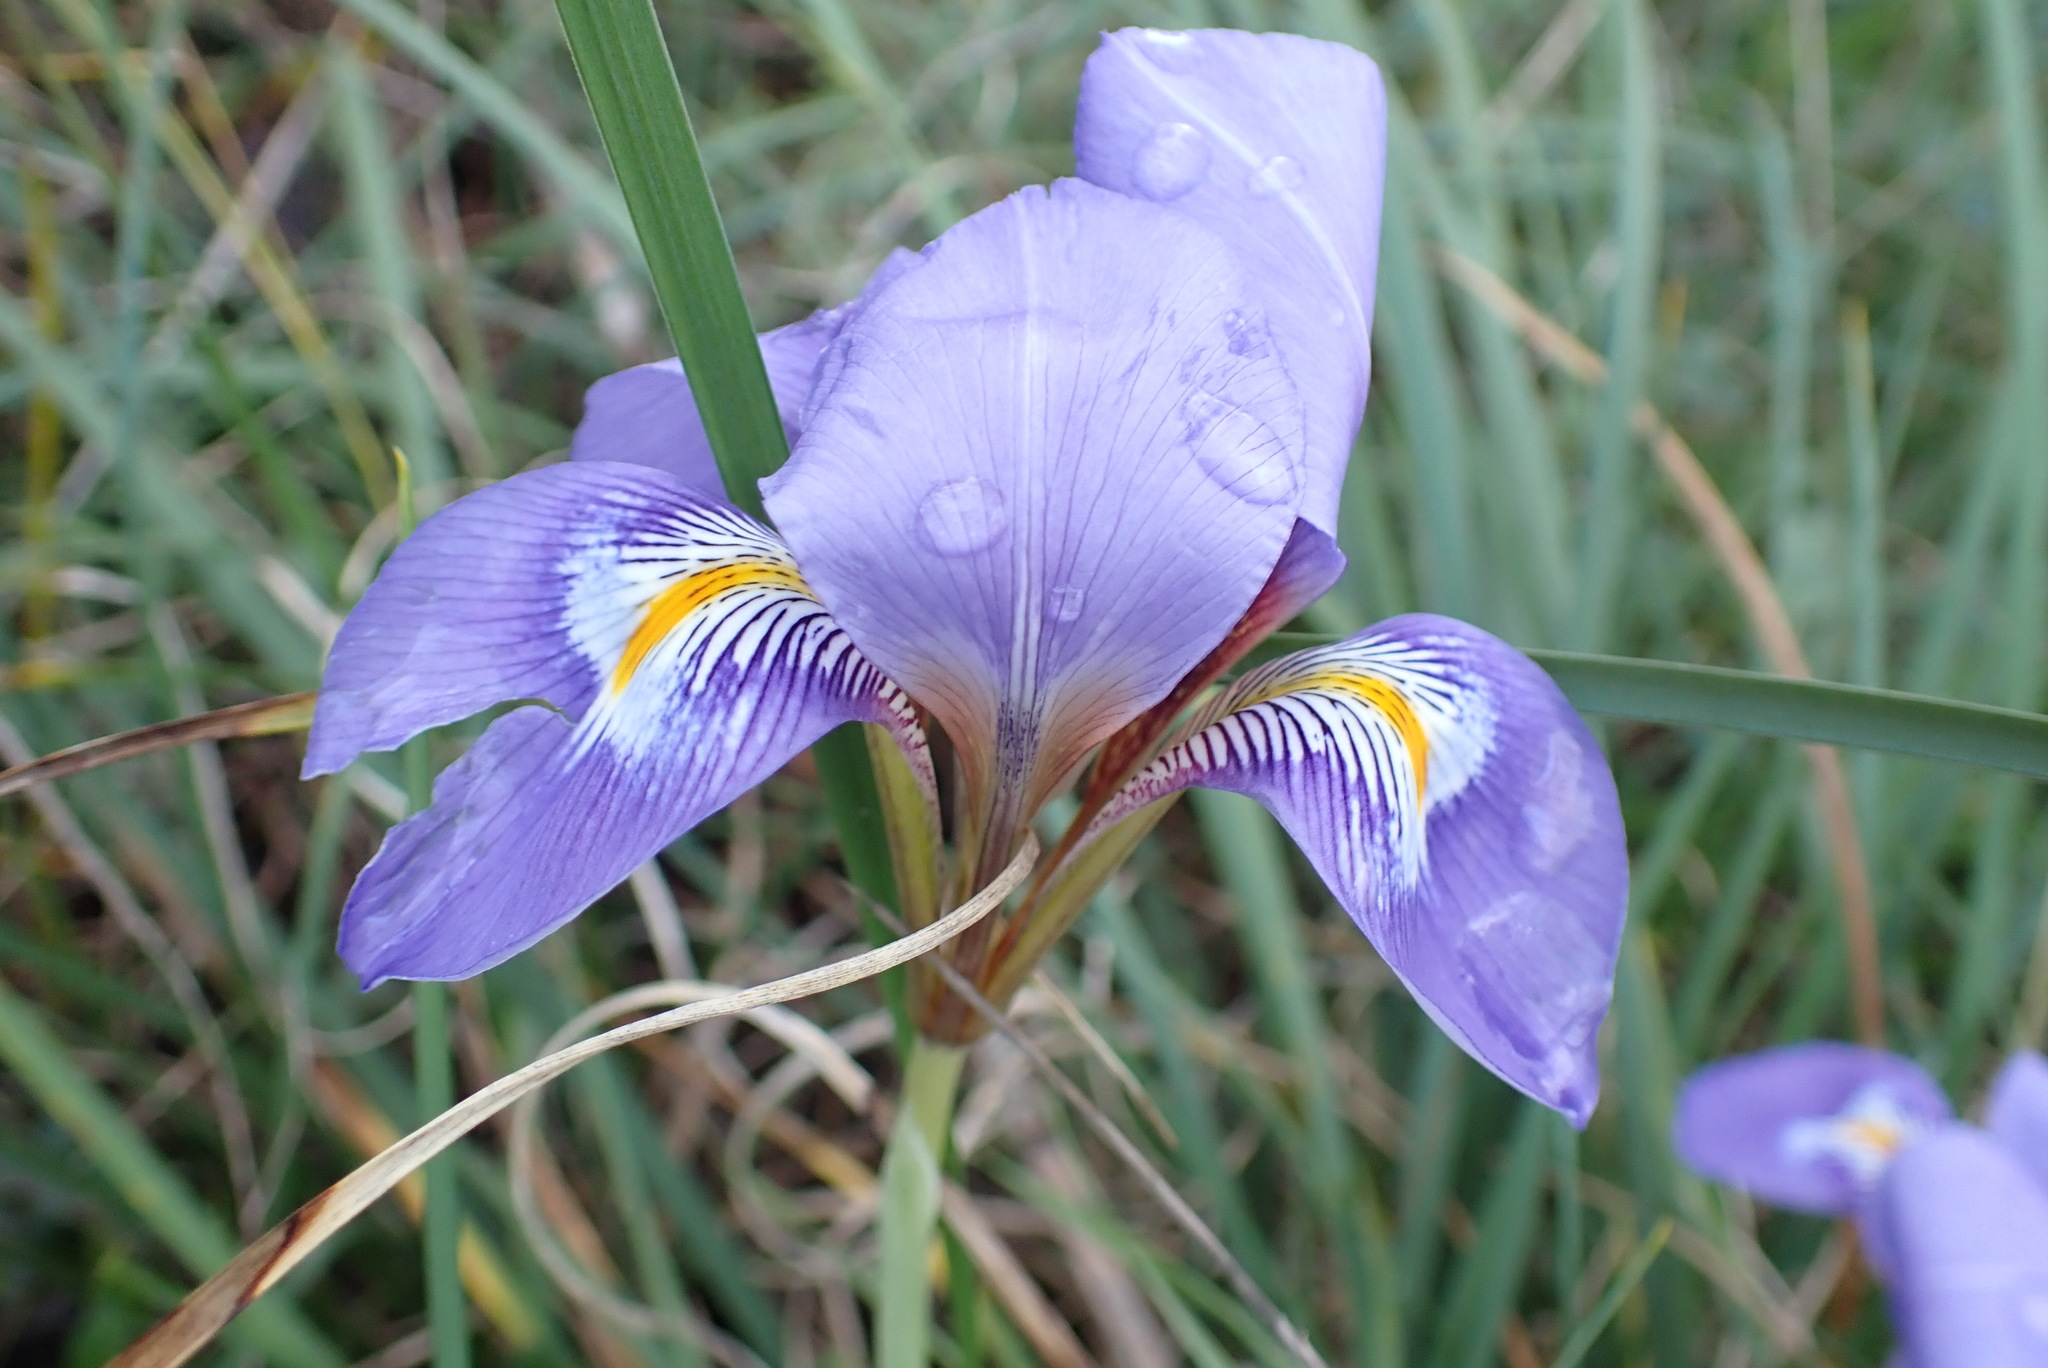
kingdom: Plantae
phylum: Tracheophyta
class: Liliopsida
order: Asparagales
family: Iridaceae
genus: Iris
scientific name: Iris unguicularis
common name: Algerian iris
